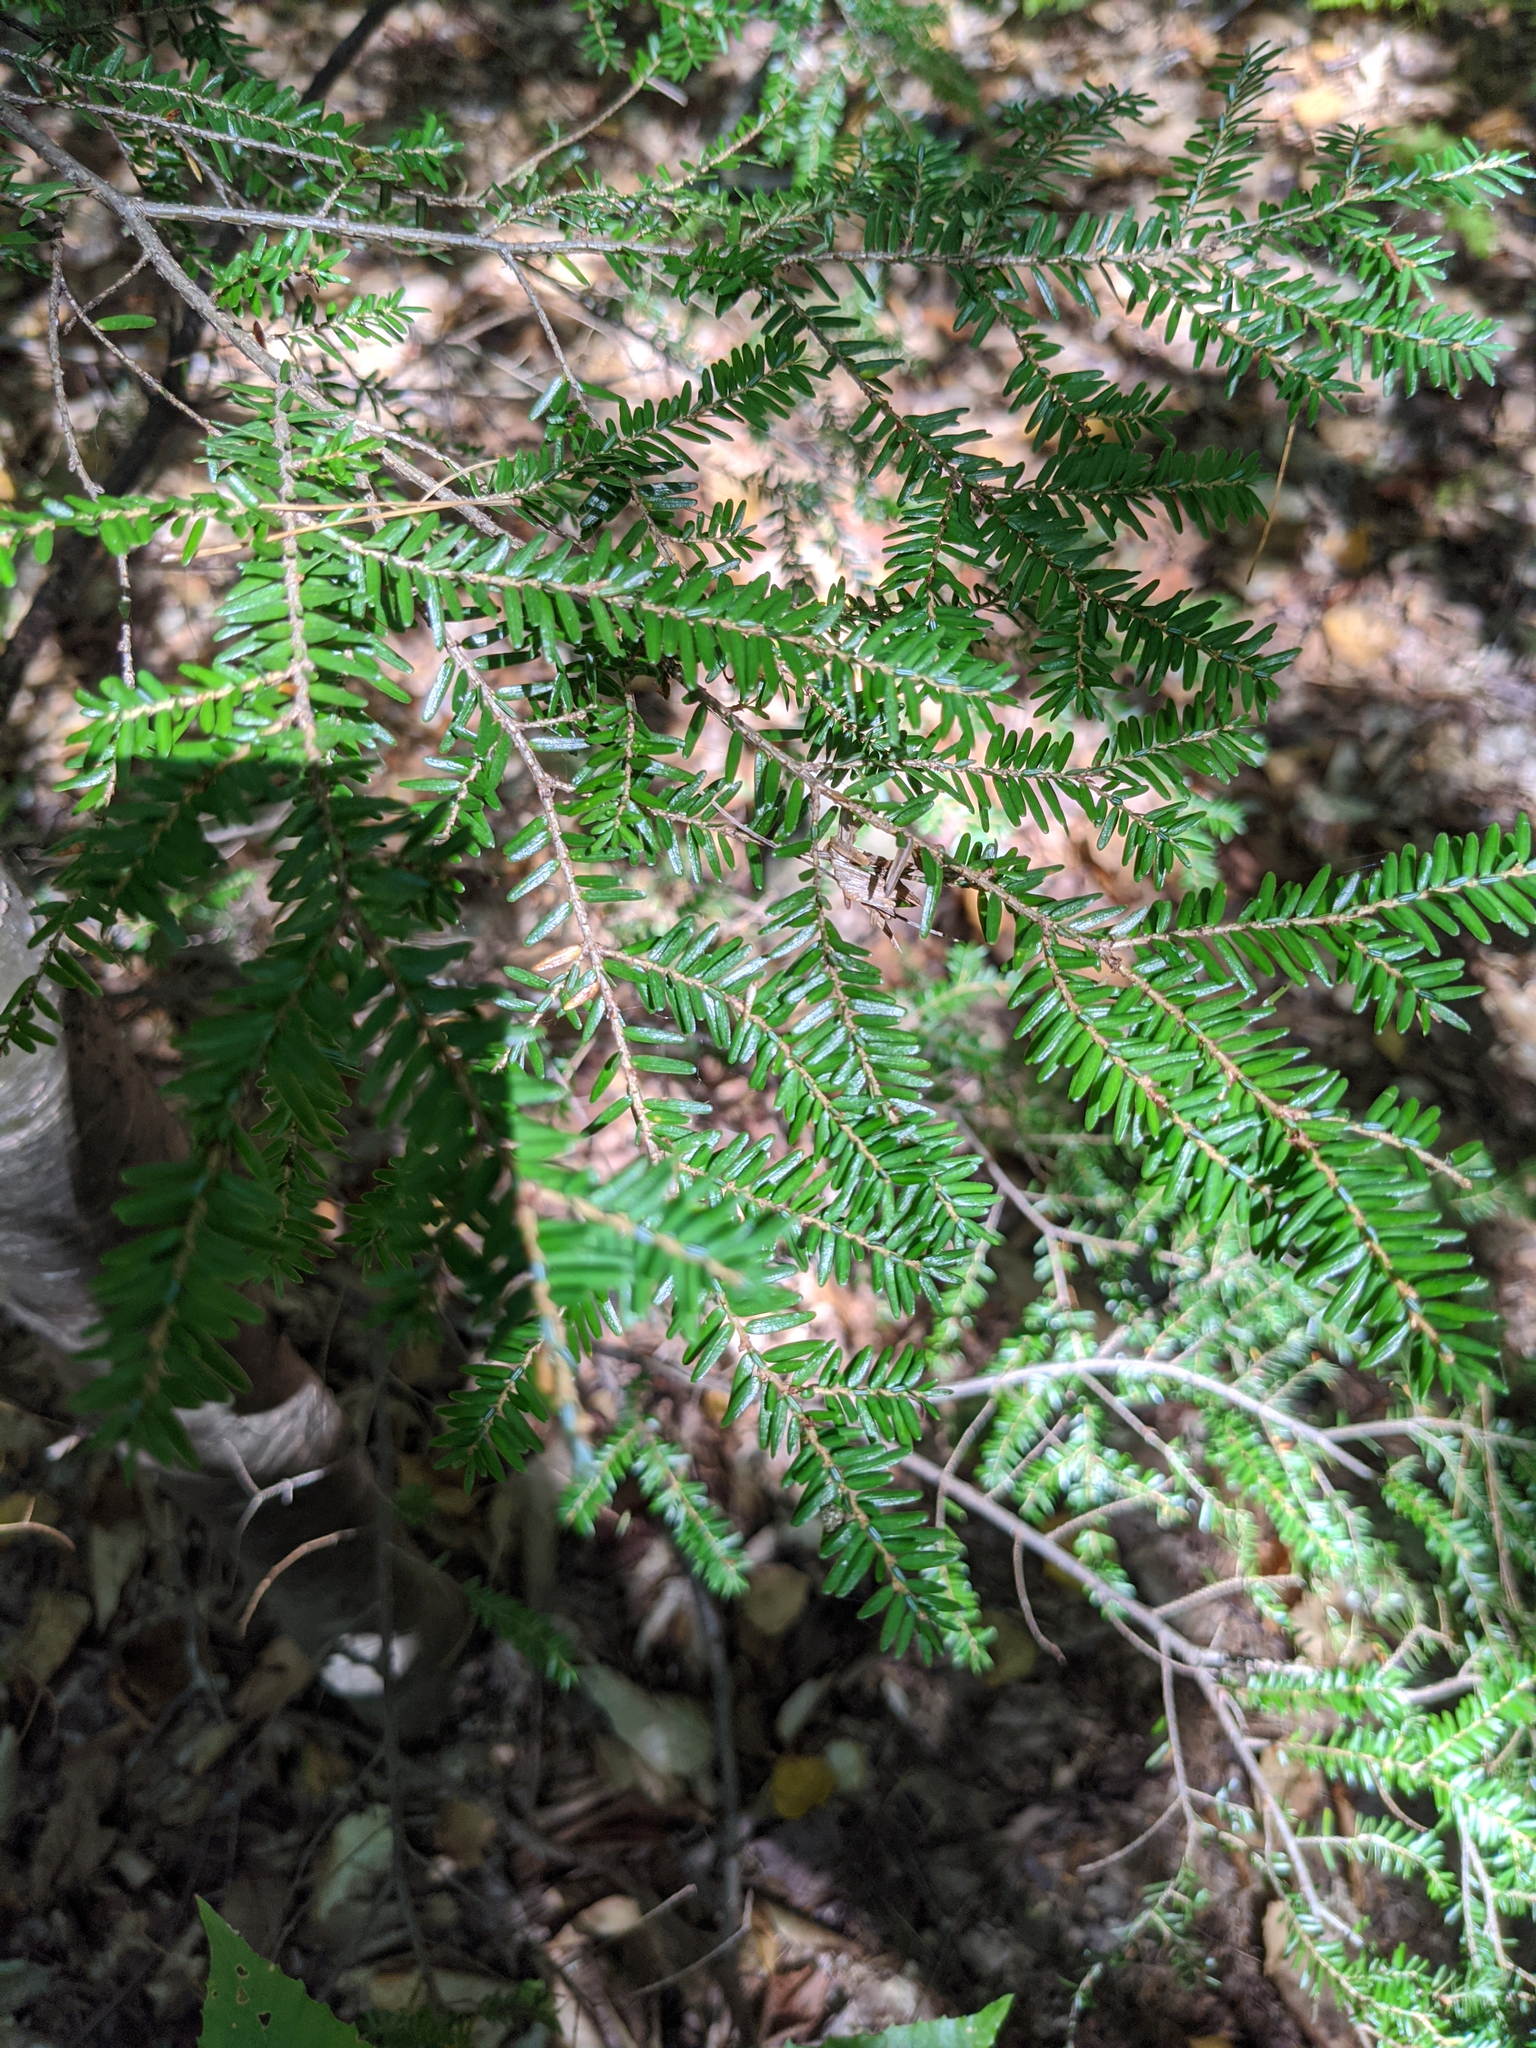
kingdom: Plantae
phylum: Tracheophyta
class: Pinopsida
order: Pinales
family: Pinaceae
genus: Tsuga
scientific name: Tsuga canadensis
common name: Eastern hemlock
